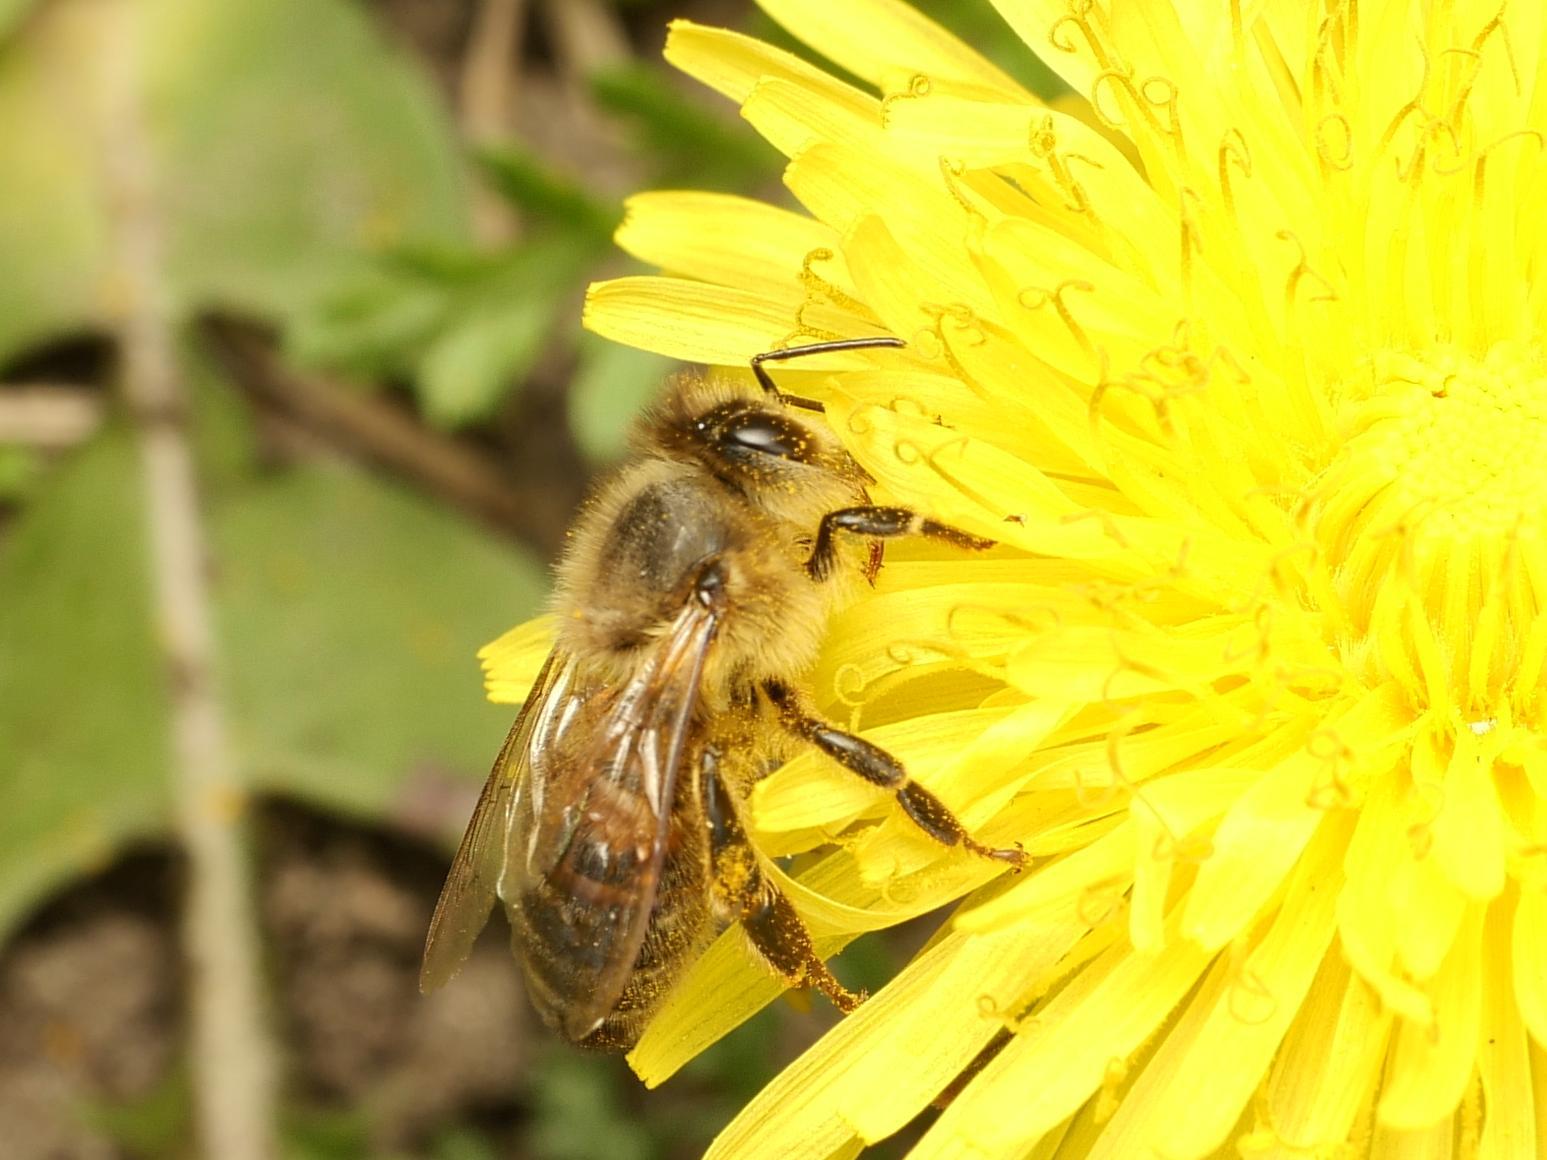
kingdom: Animalia
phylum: Arthropoda
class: Insecta
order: Hymenoptera
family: Apidae
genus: Apis
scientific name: Apis mellifera
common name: Honey bee
